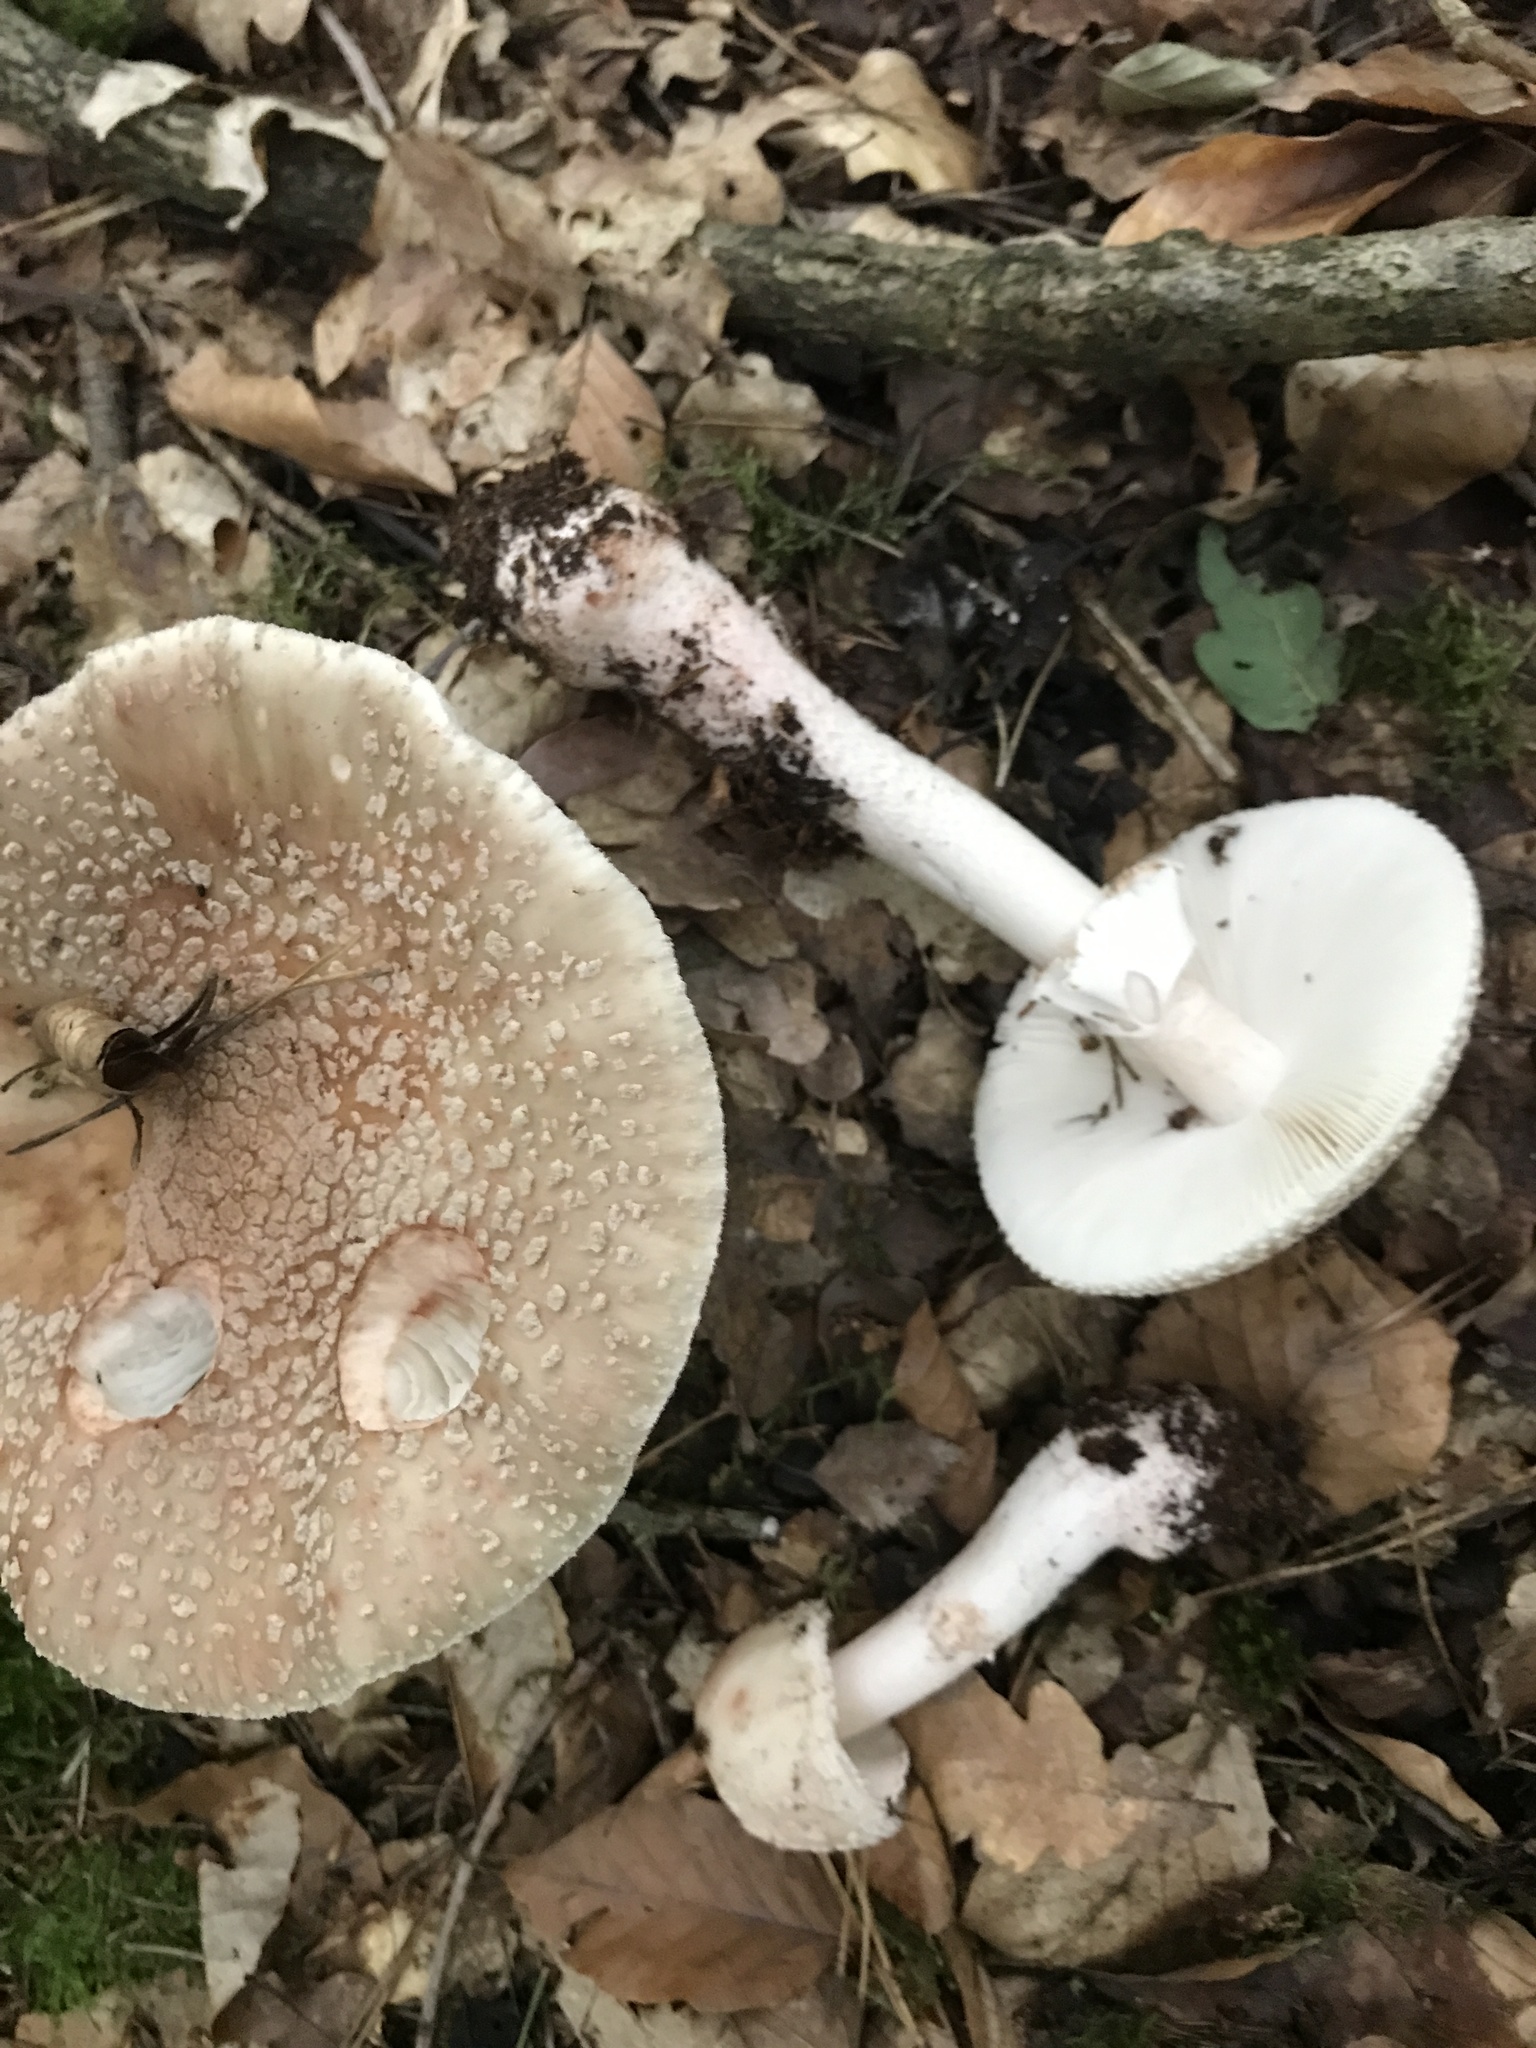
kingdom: Fungi
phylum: Basidiomycota
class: Agaricomycetes
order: Agaricales
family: Amanitaceae
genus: Amanita
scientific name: Amanita rubescens
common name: Blusher
